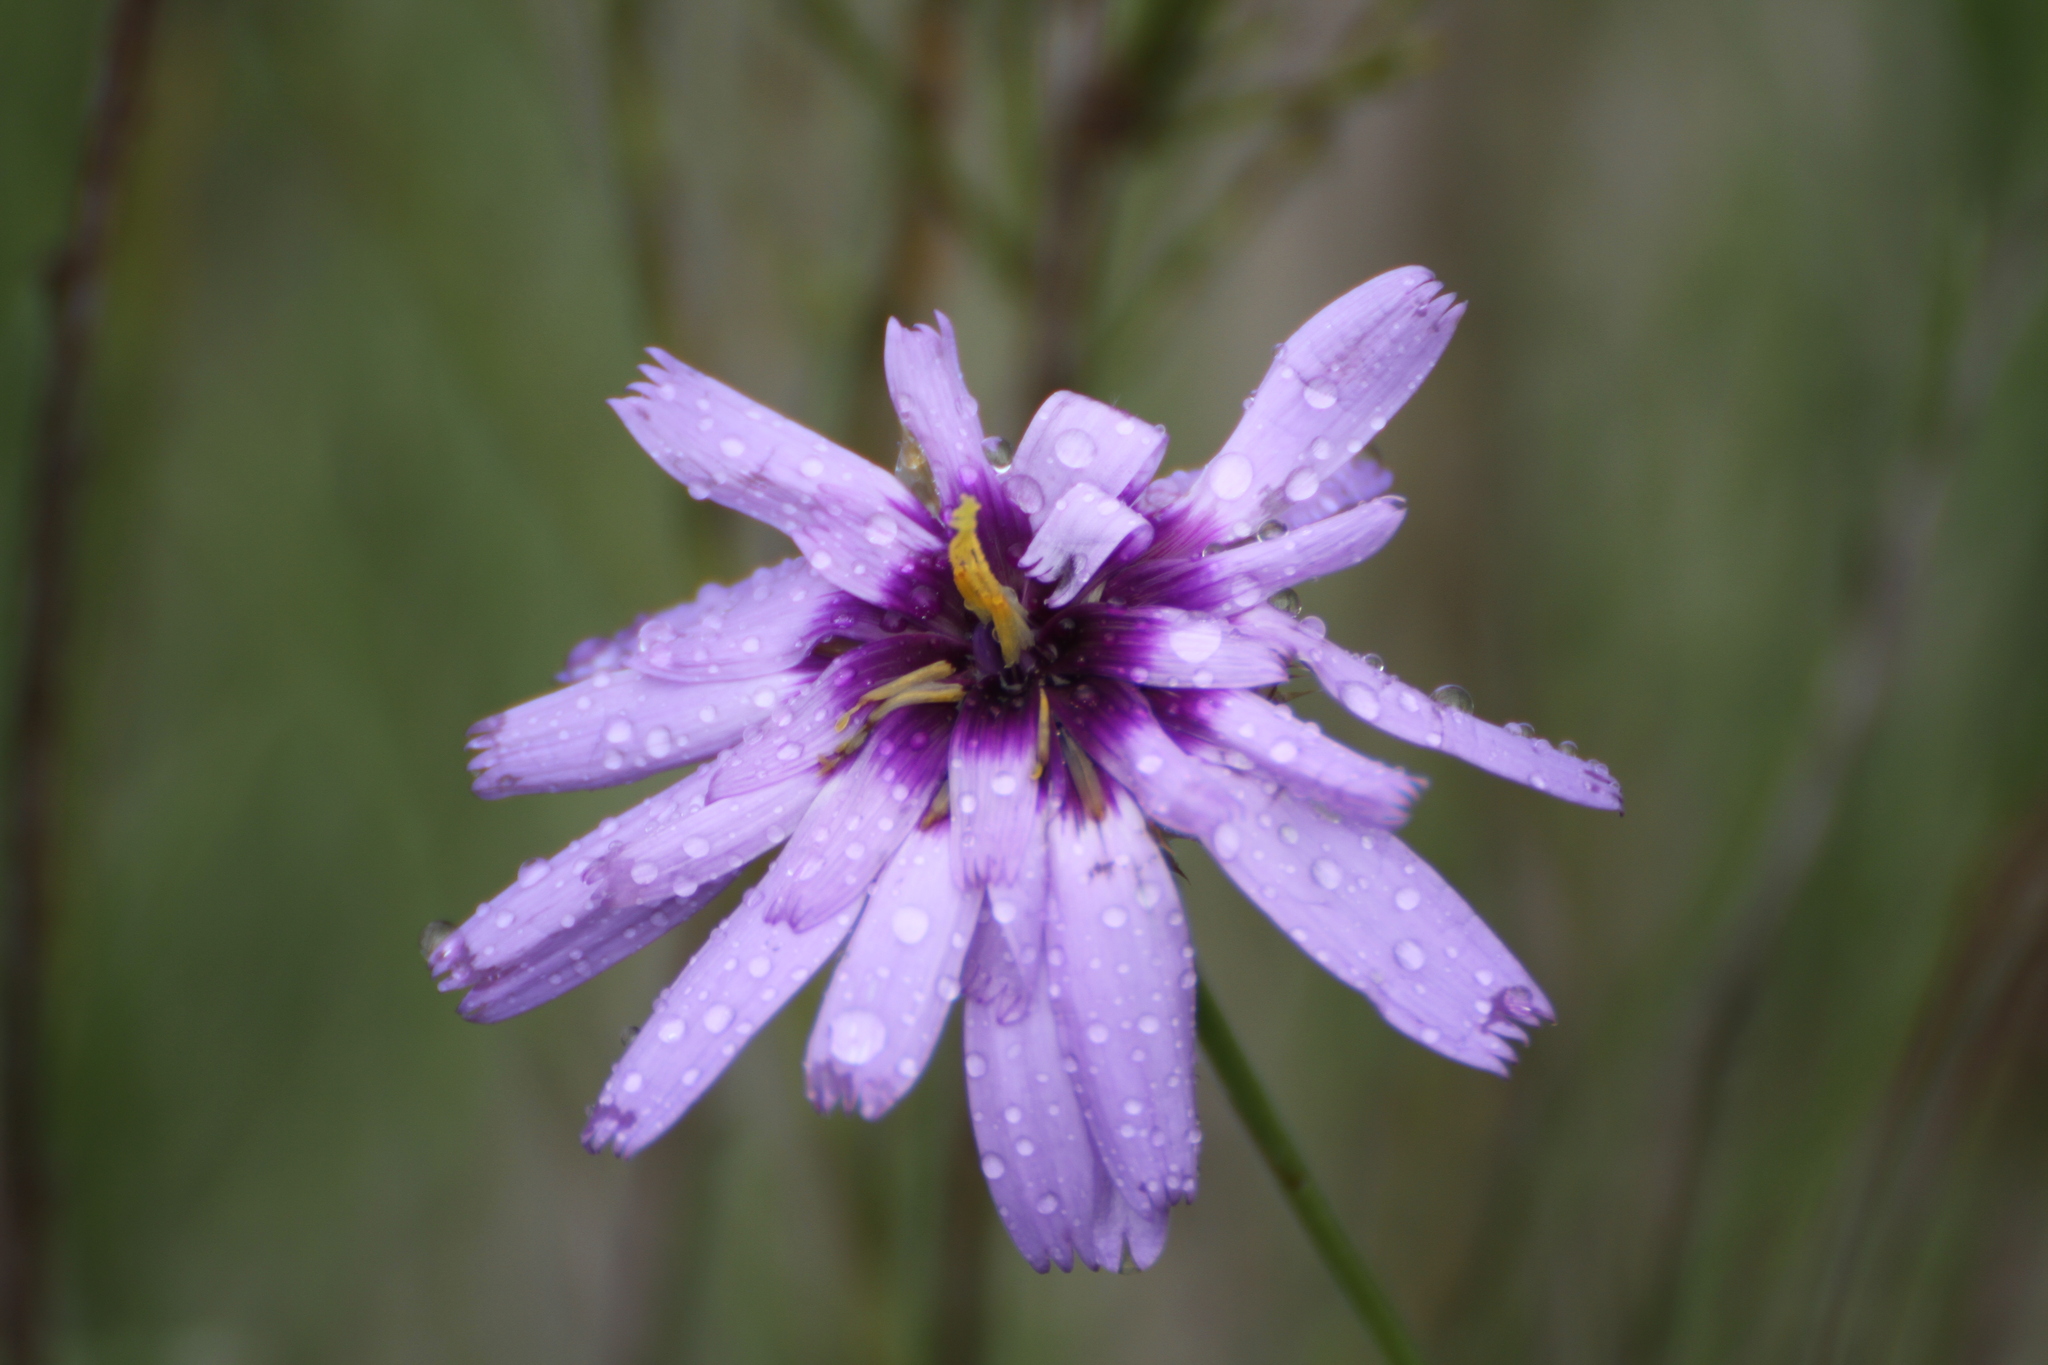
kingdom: Plantae
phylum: Tracheophyta
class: Magnoliopsida
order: Asterales
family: Asteraceae
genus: Catananche
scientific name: Catananche caerulea
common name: Blue cupidone
